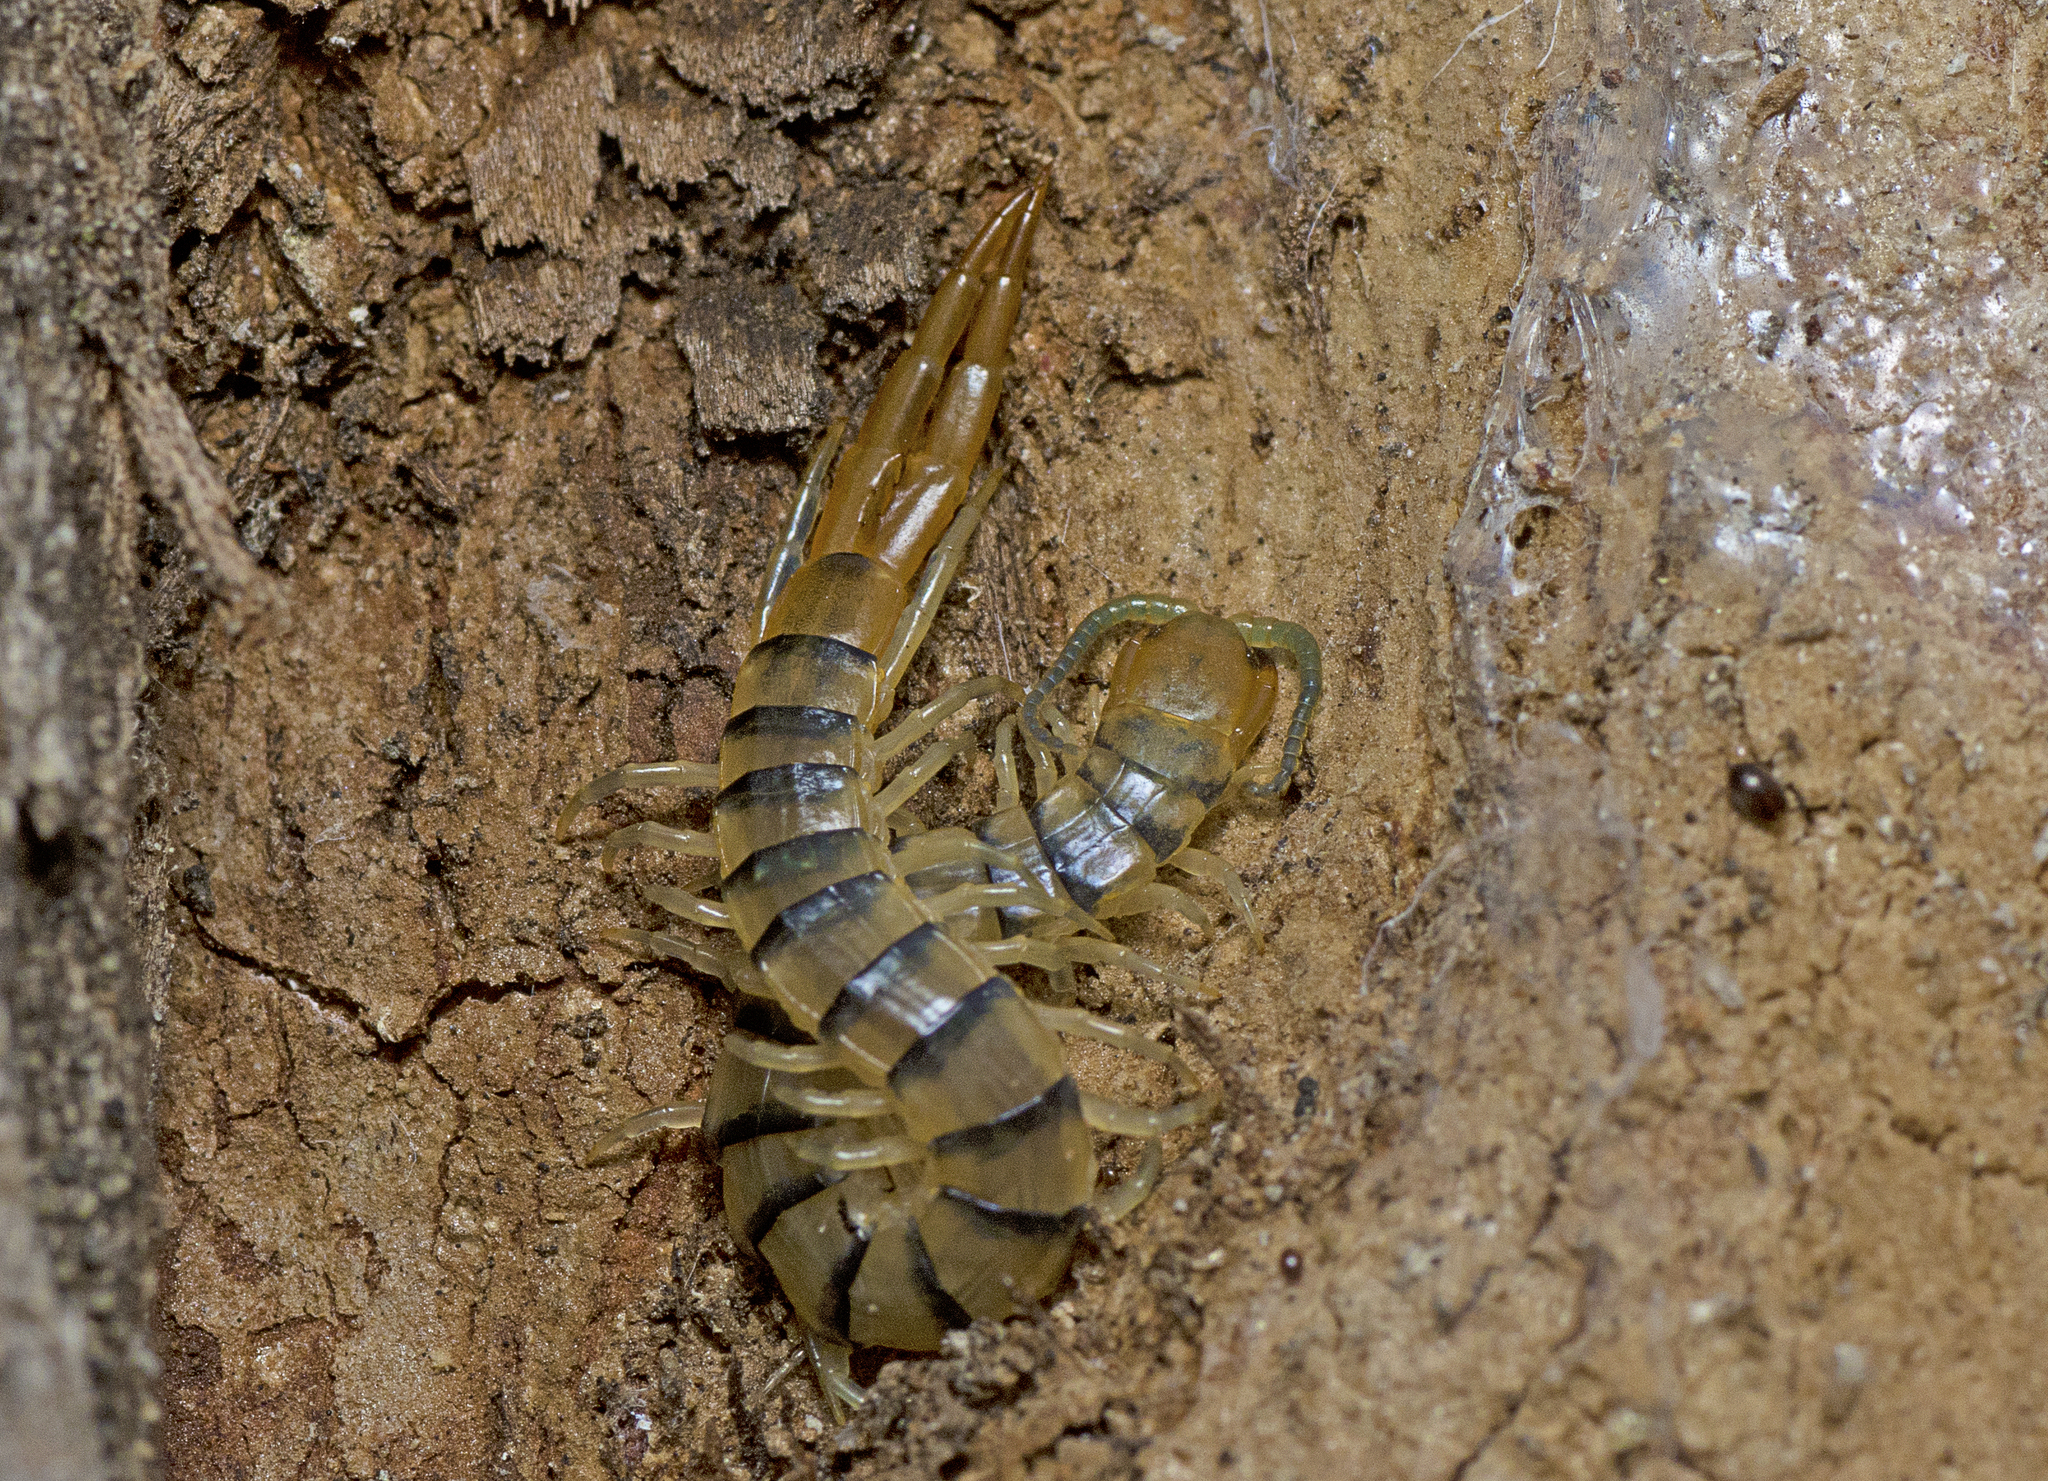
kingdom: Animalia
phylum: Arthropoda
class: Chilopoda
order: Scolopendromorpha
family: Scolopendridae
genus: Cormocephalus
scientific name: Cormocephalus
